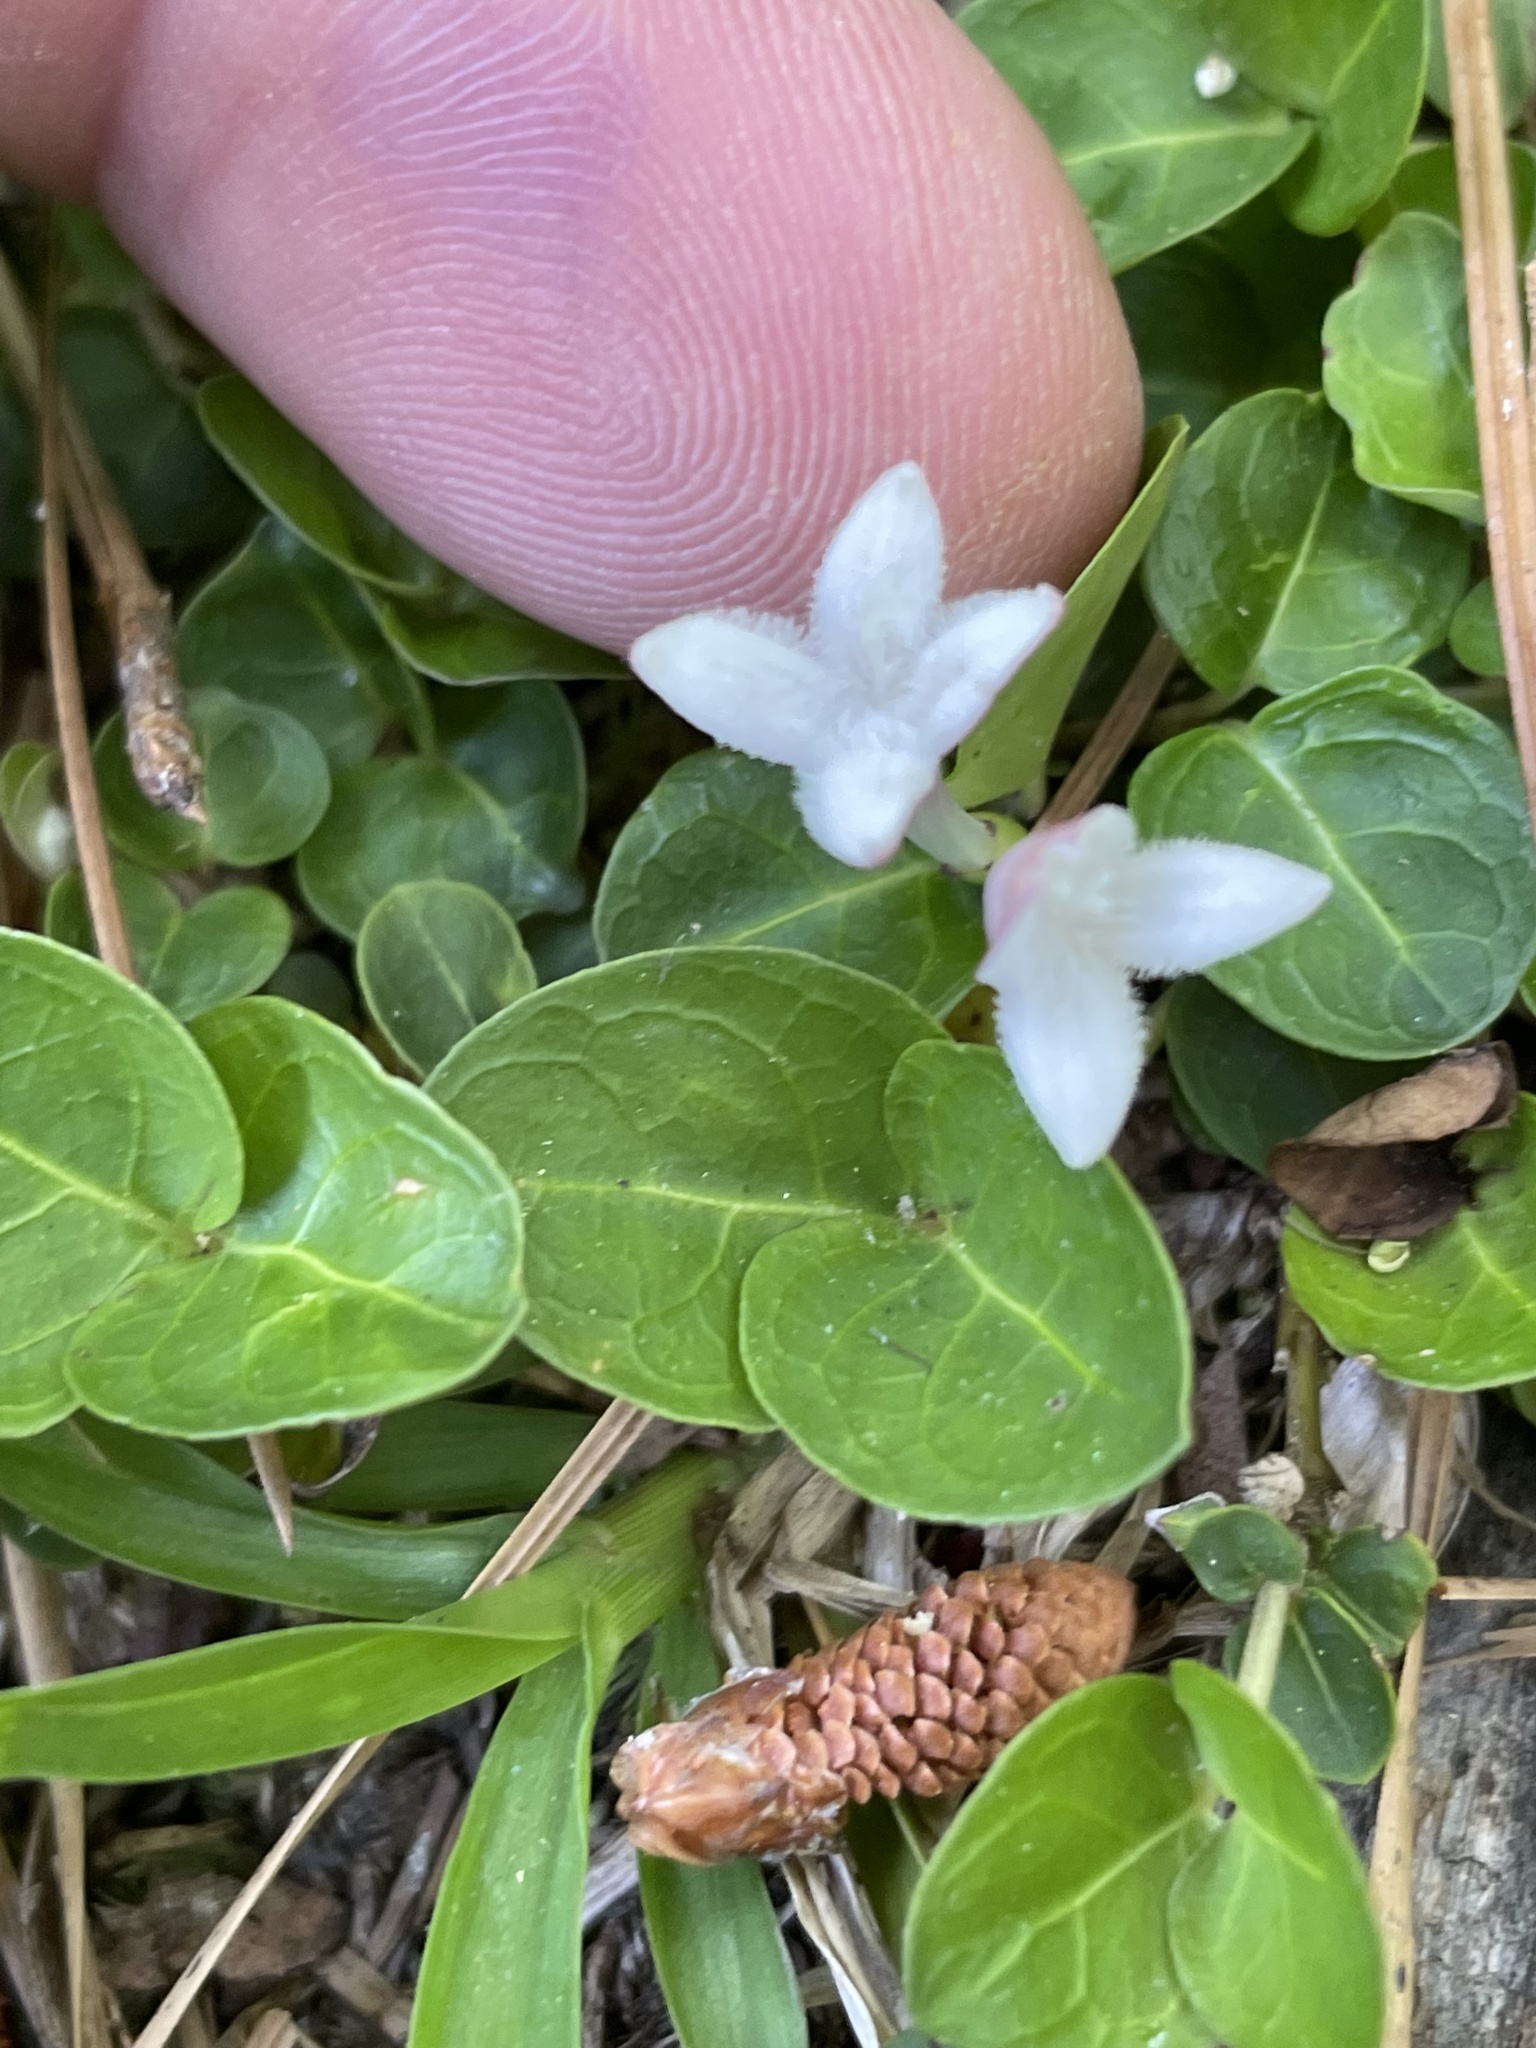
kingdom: Plantae
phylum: Tracheophyta
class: Magnoliopsida
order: Gentianales
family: Rubiaceae
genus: Mitchella
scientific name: Mitchella repens
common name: Partridge-berry
